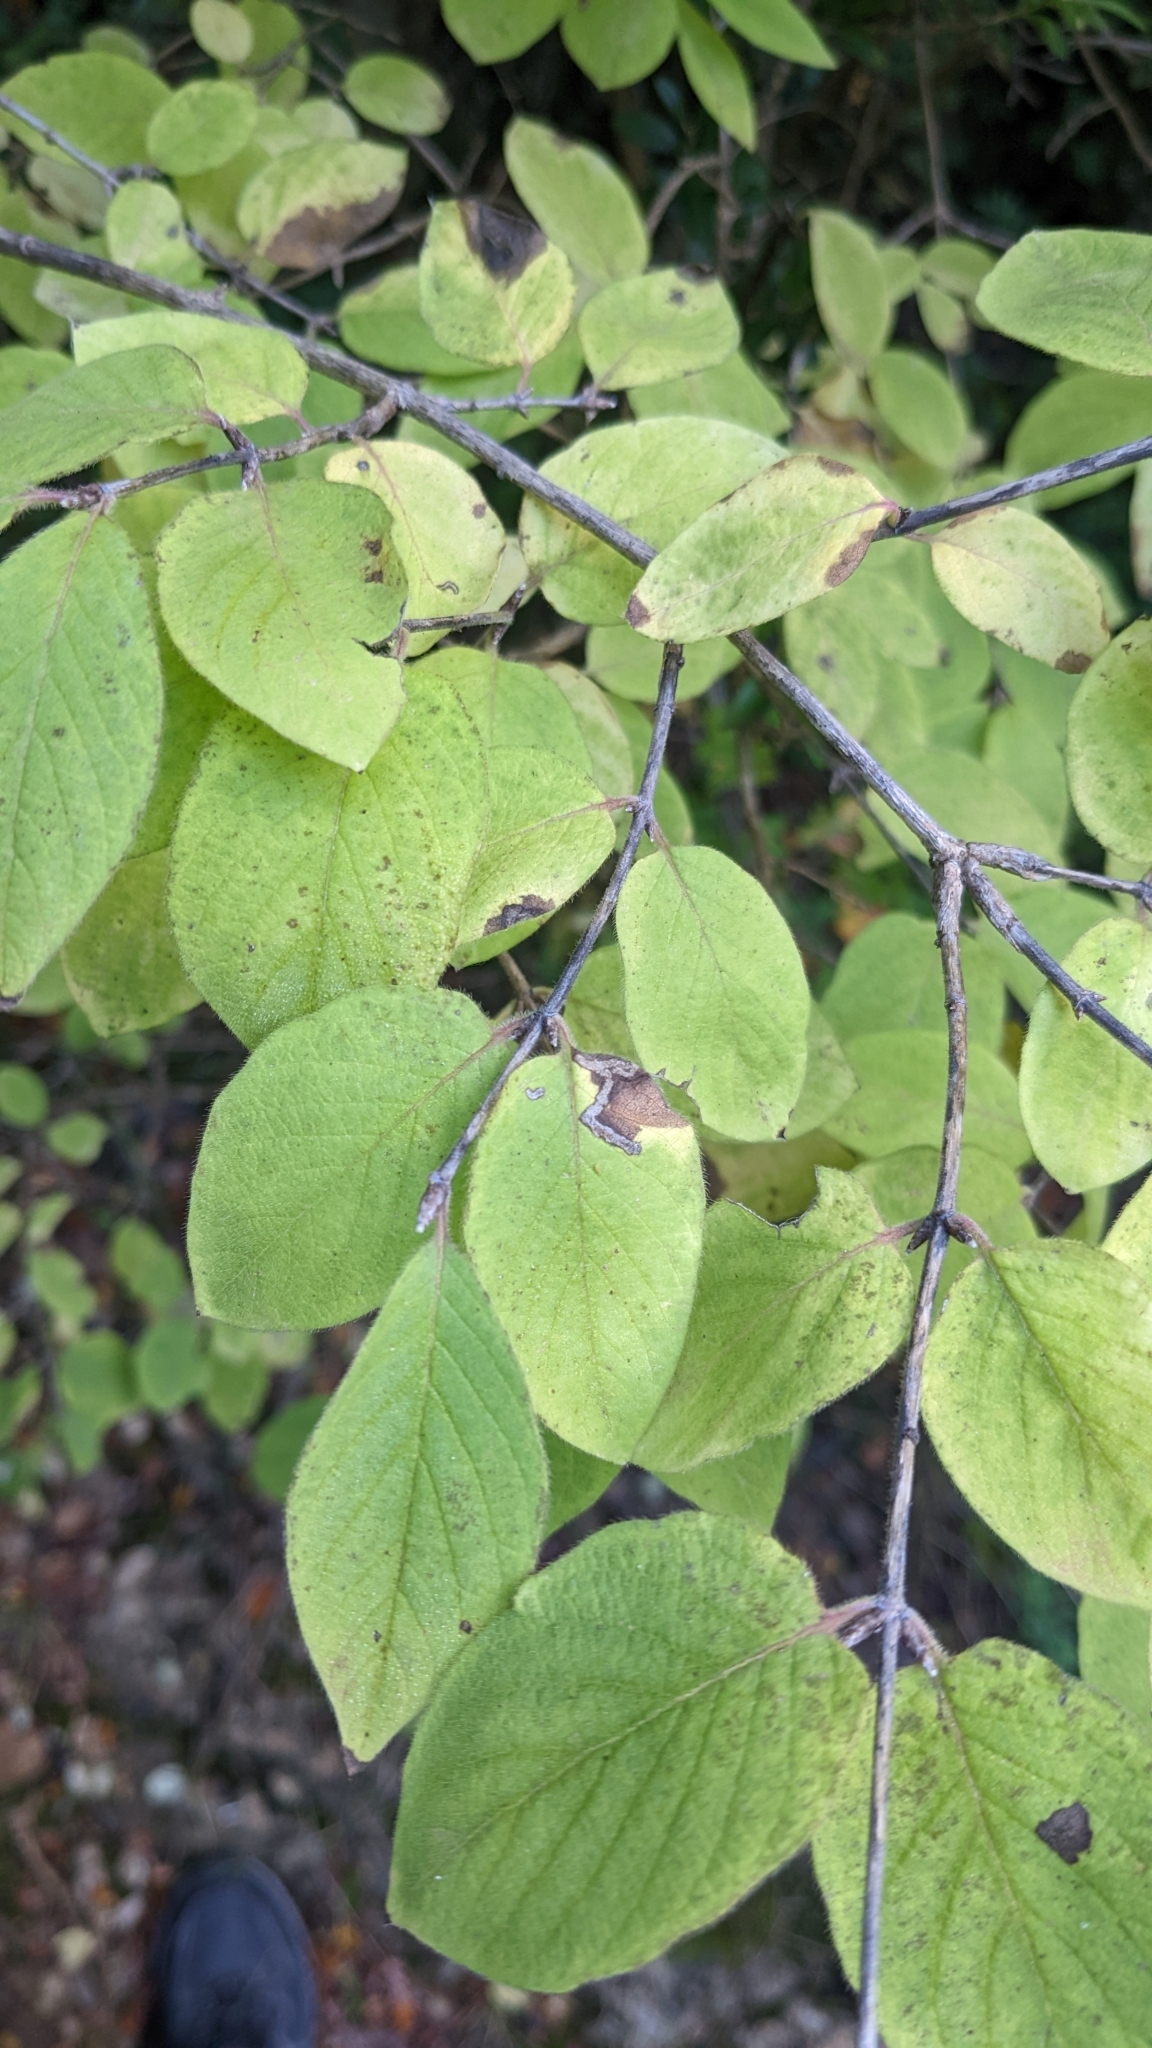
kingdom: Plantae
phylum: Tracheophyta
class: Magnoliopsida
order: Dipsacales
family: Caprifoliaceae
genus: Lonicera
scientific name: Lonicera xylosteum
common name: Fly honeysuckle
